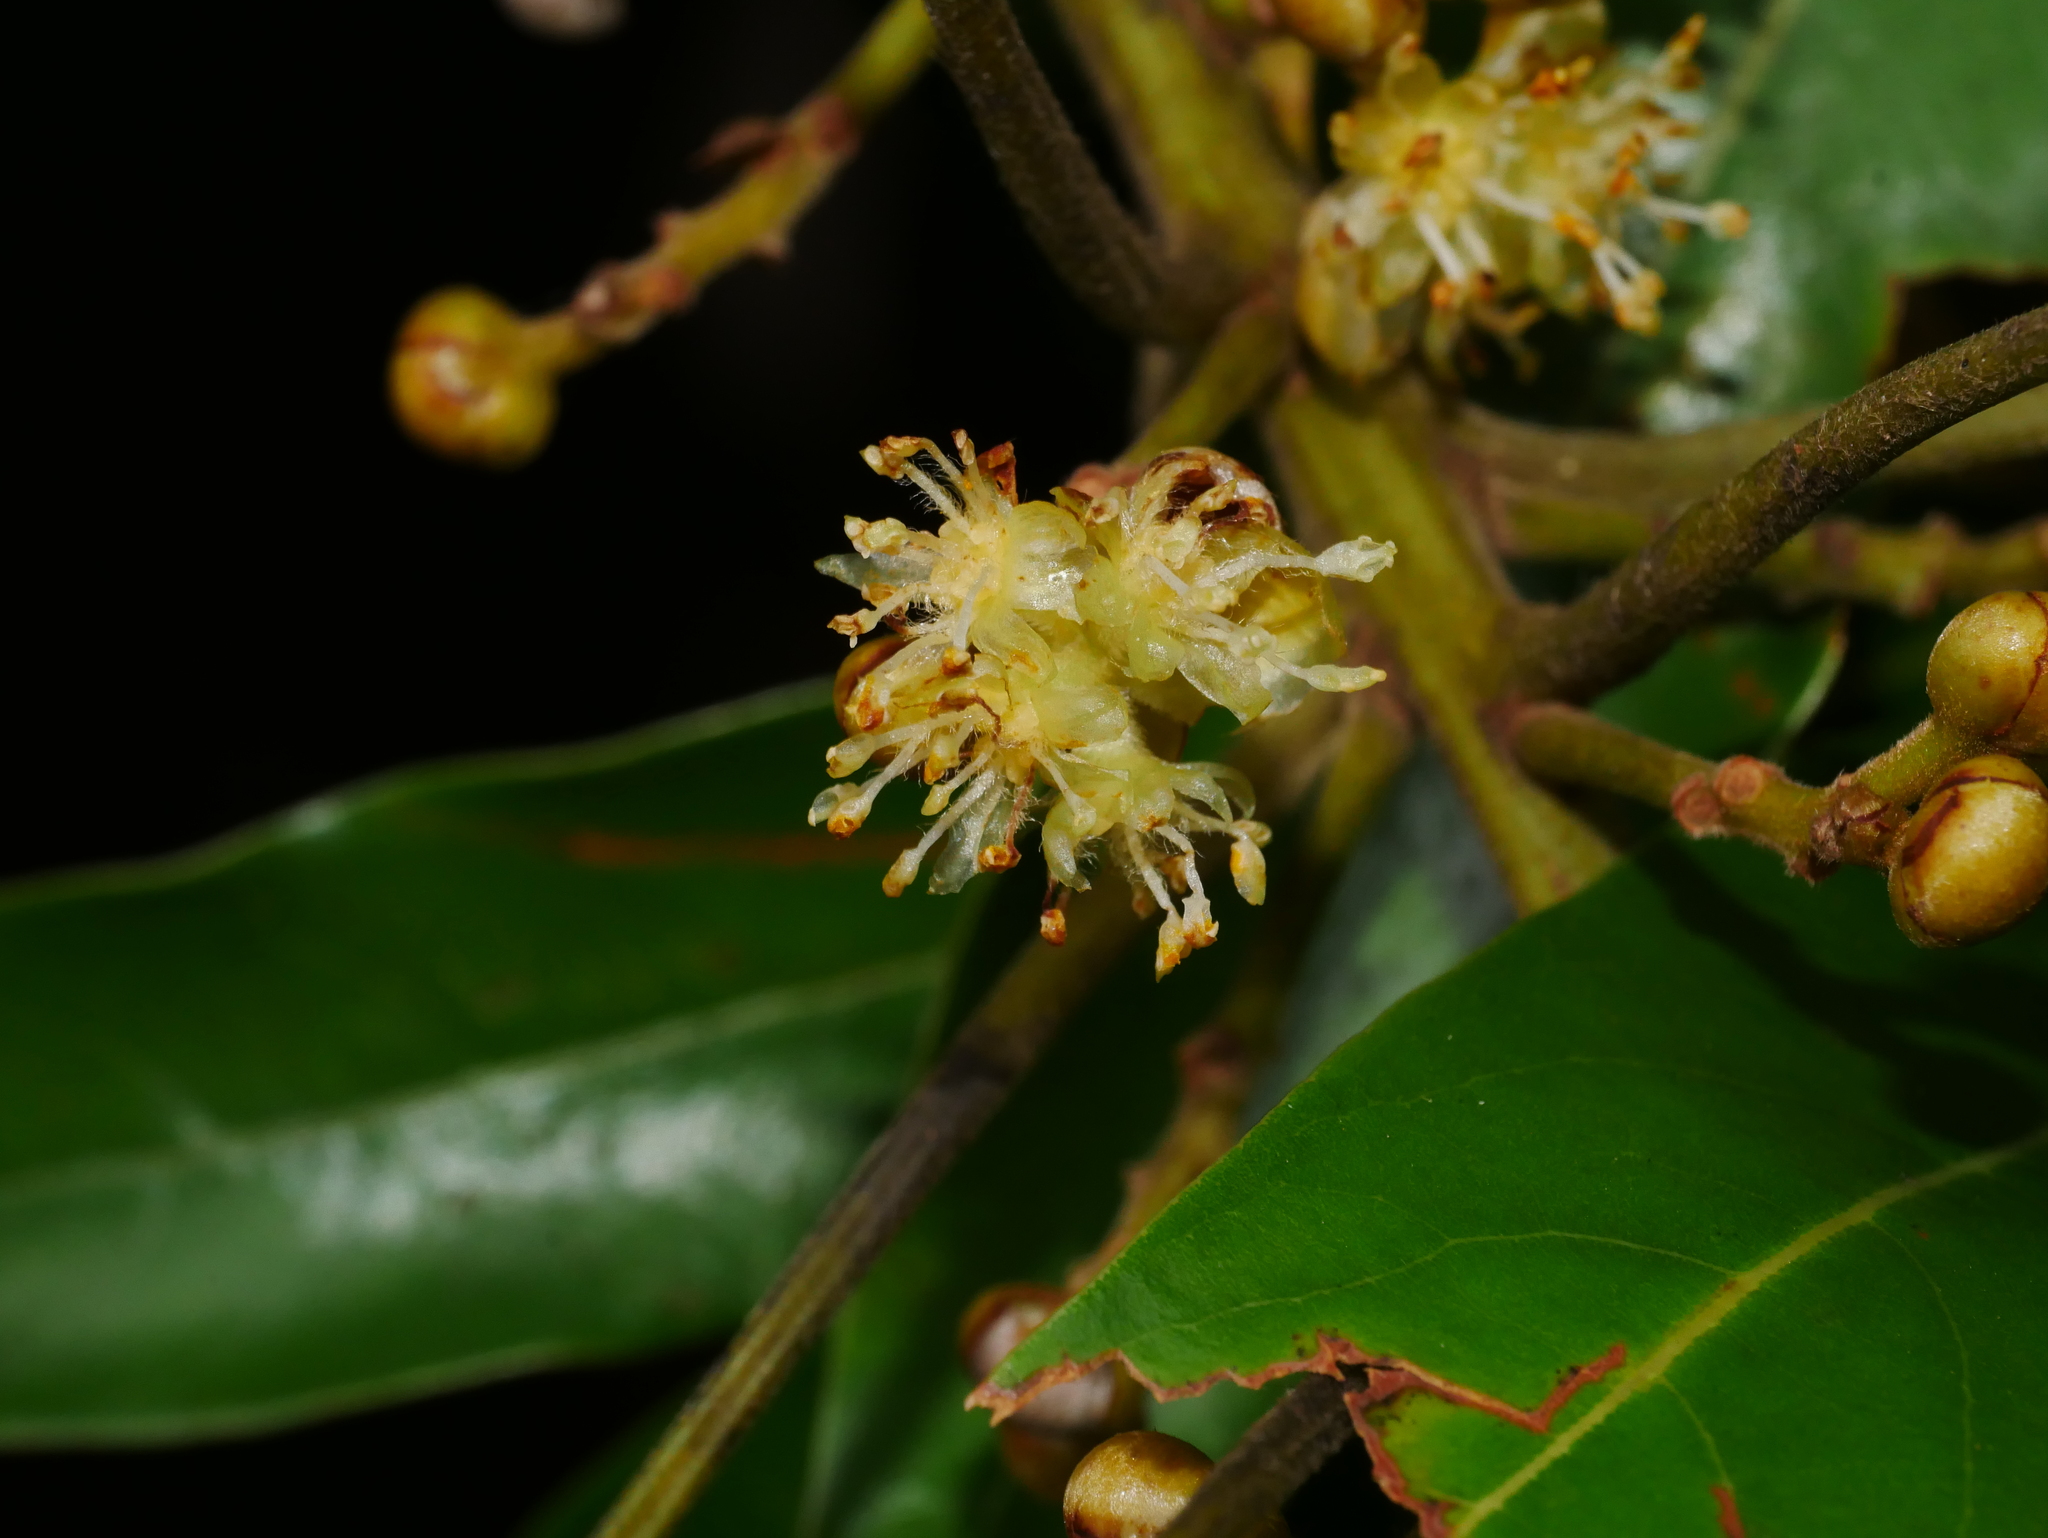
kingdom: Plantae
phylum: Tracheophyta
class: Magnoliopsida
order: Laurales
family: Lauraceae
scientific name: Lauraceae
